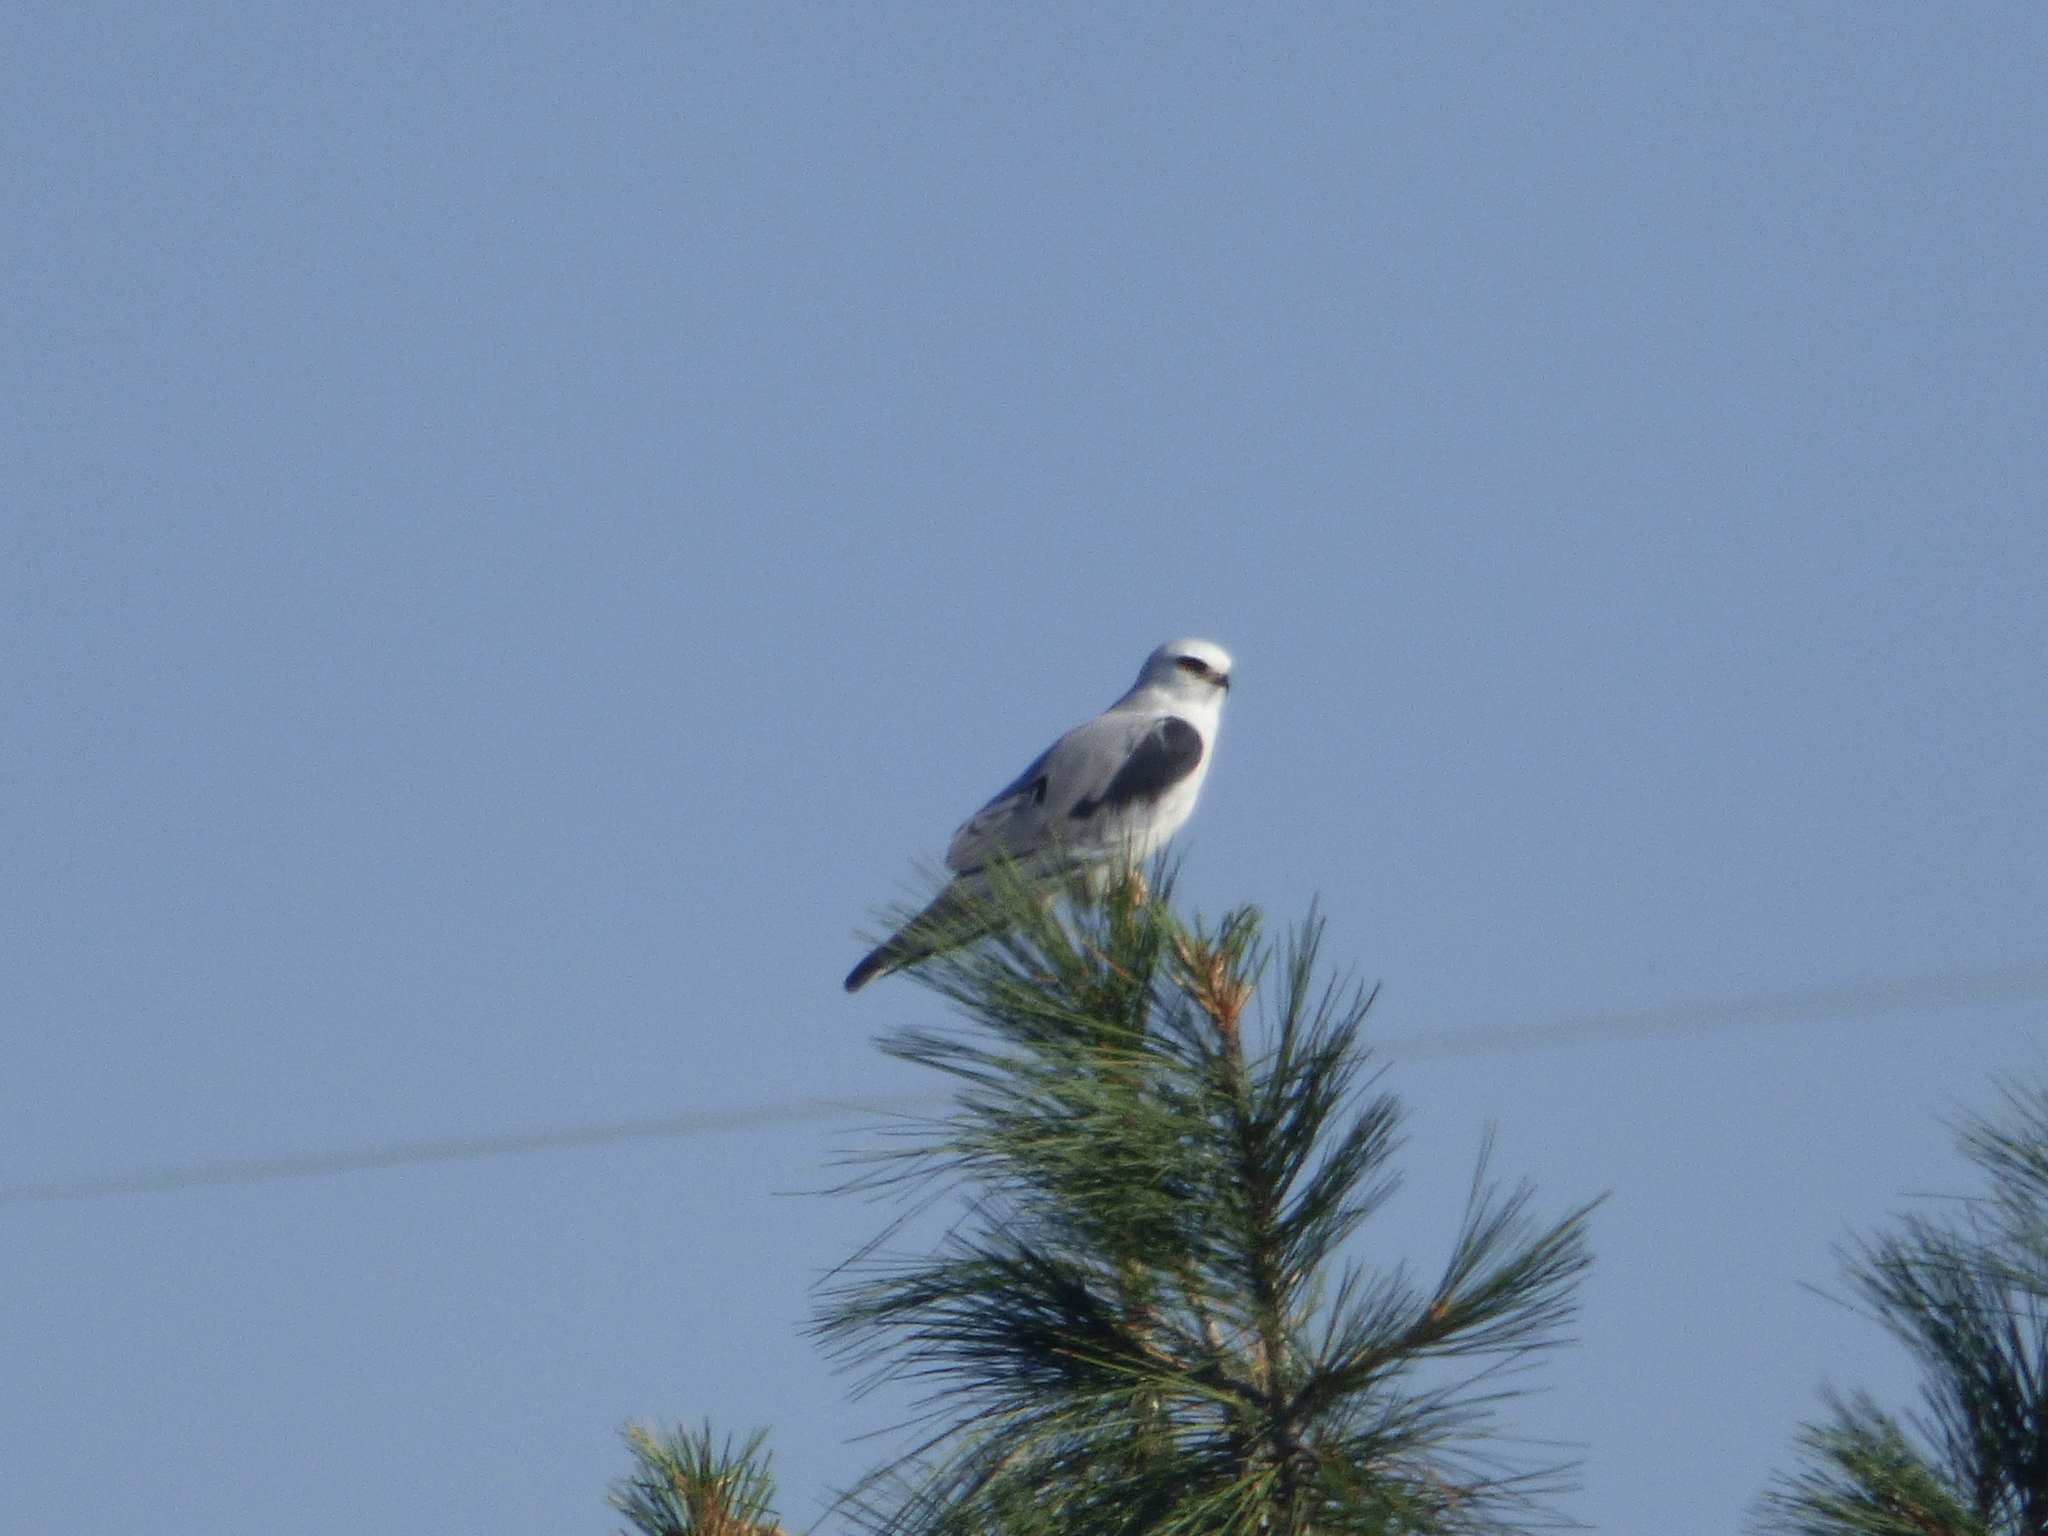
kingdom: Animalia
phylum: Chordata
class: Aves
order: Accipitriformes
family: Accipitridae
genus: Elanus
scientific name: Elanus leucurus
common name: White-tailed kite
